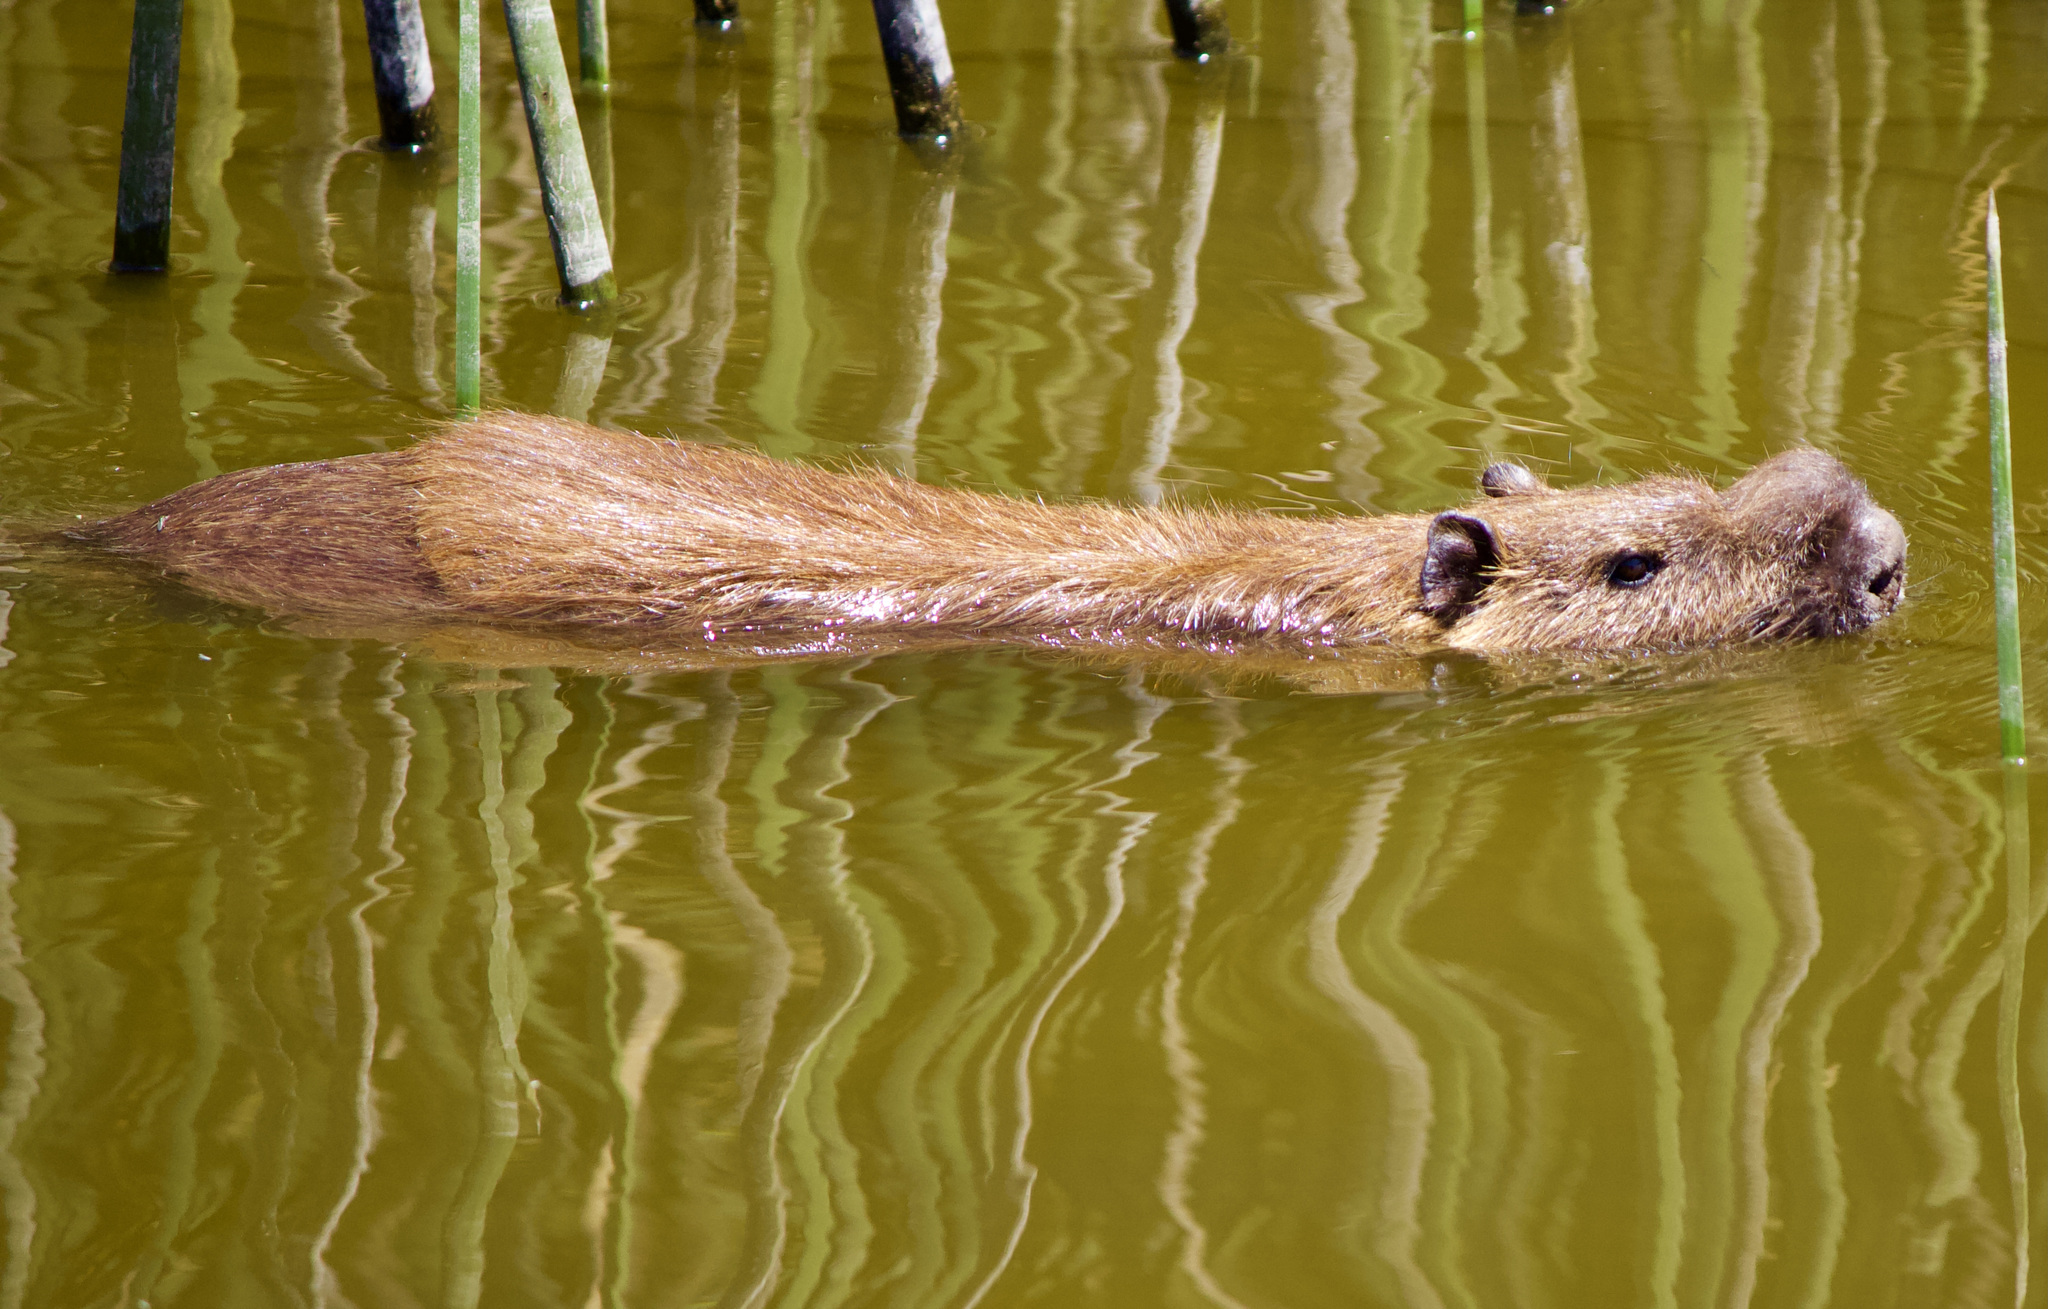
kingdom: Animalia
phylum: Chordata
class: Mammalia
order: Rodentia
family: Myocastoridae
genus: Myocastor
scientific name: Myocastor coypus
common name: Coypu
